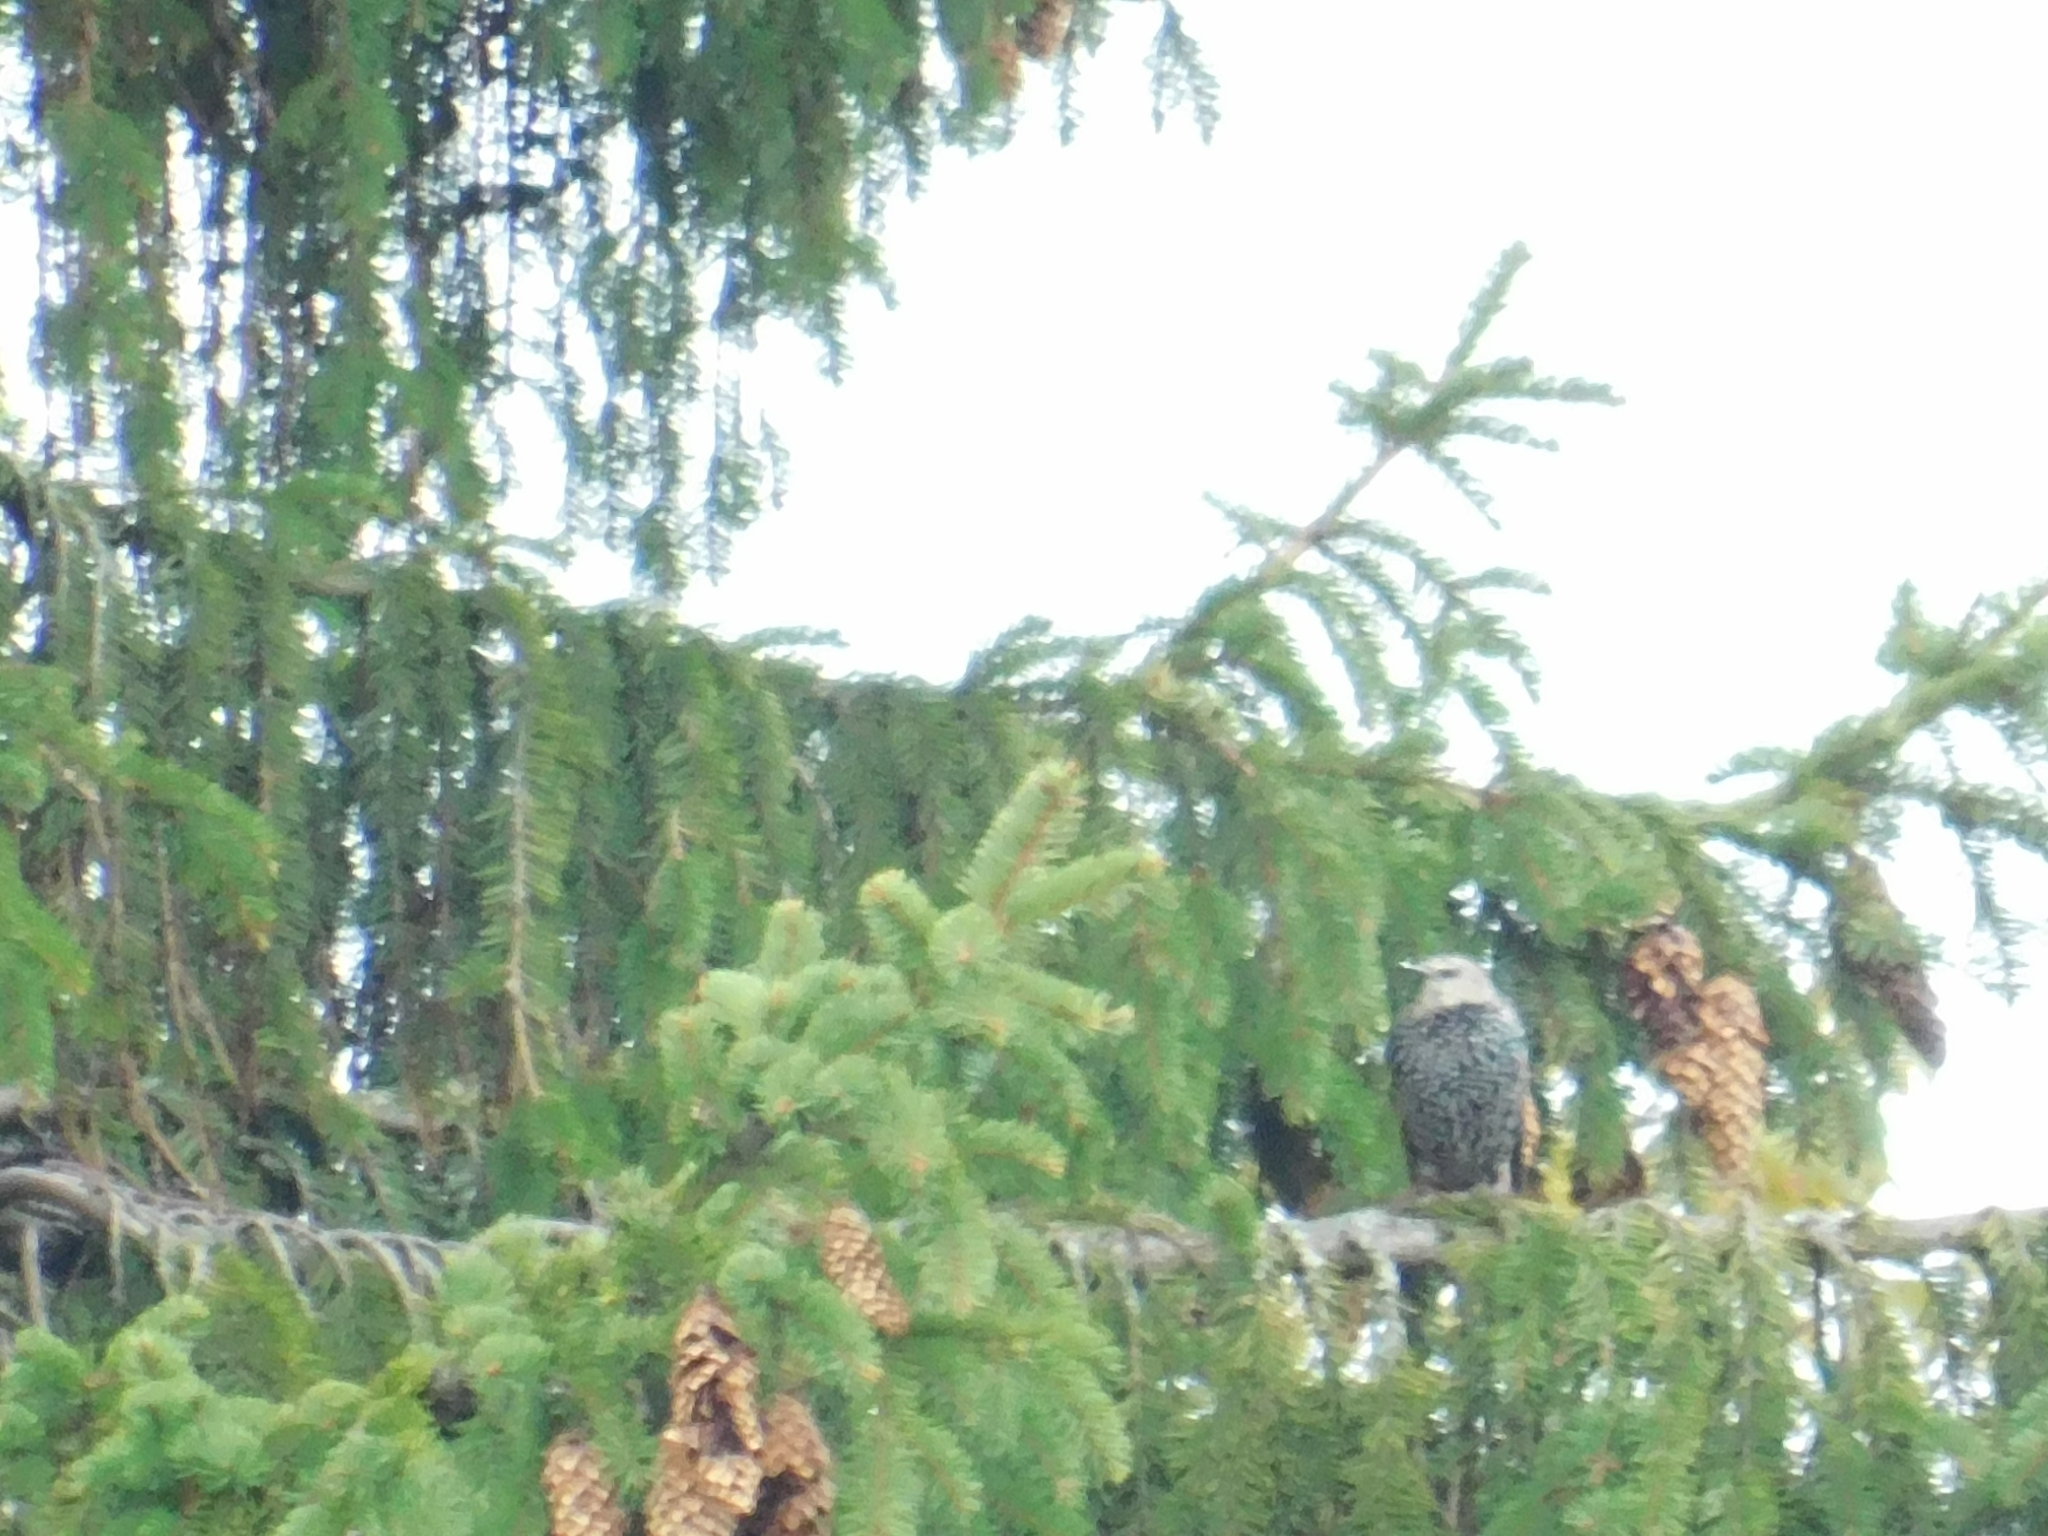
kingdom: Animalia
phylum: Chordata
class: Aves
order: Passeriformes
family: Sturnidae
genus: Sturnus
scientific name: Sturnus vulgaris
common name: Common starling
